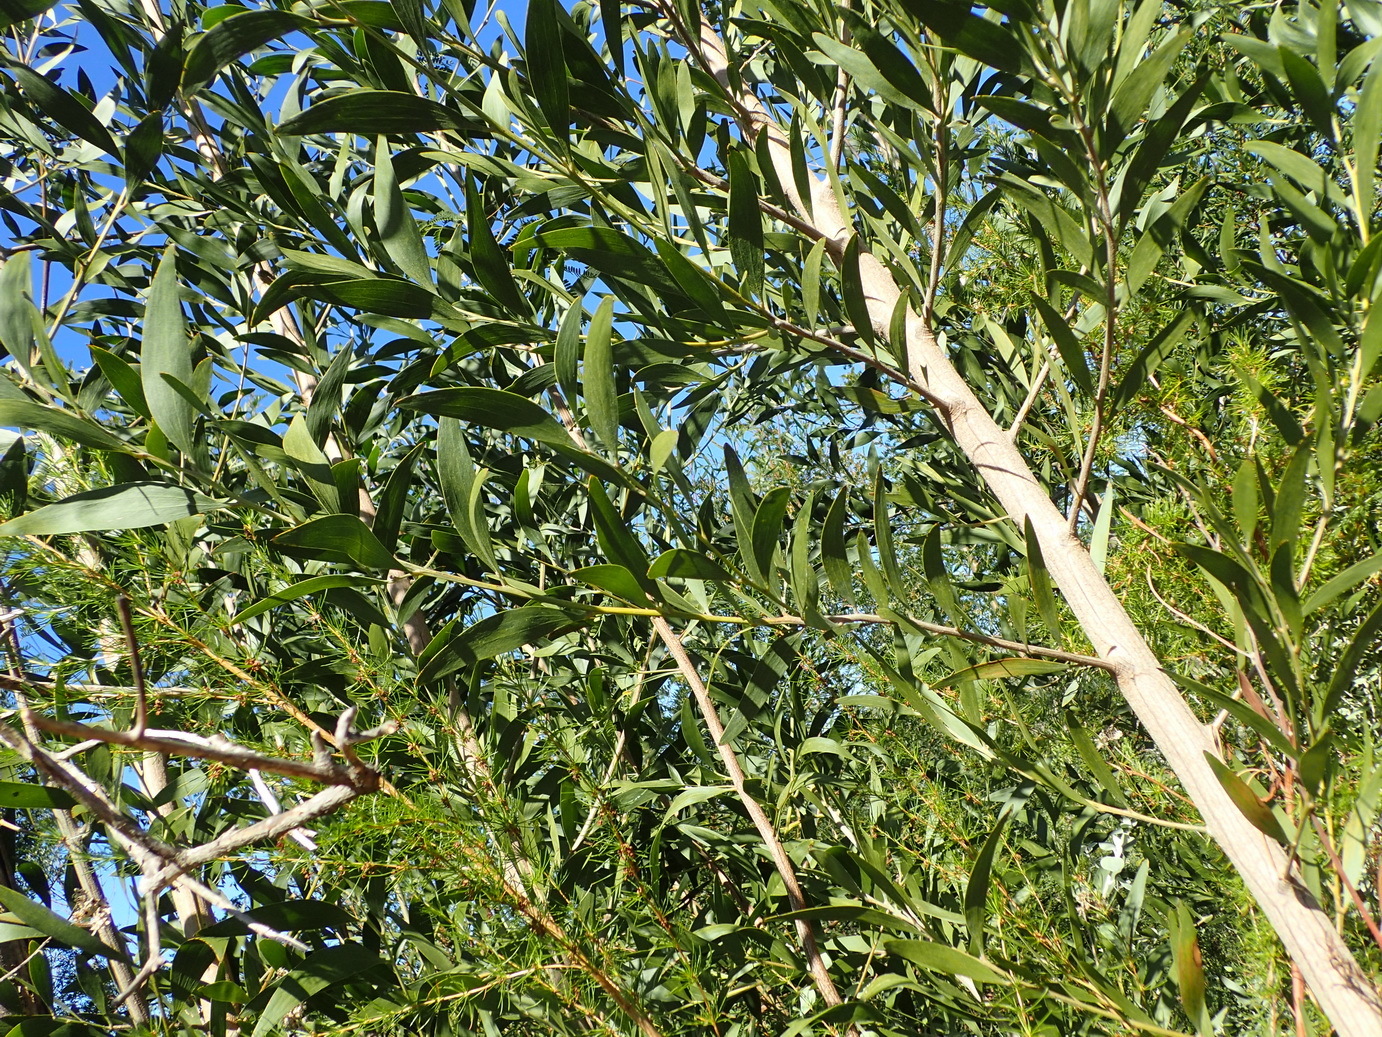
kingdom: Plantae
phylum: Tracheophyta
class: Magnoliopsida
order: Fabales
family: Fabaceae
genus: Acacia
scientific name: Acacia melanoxylon
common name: Blackwood
